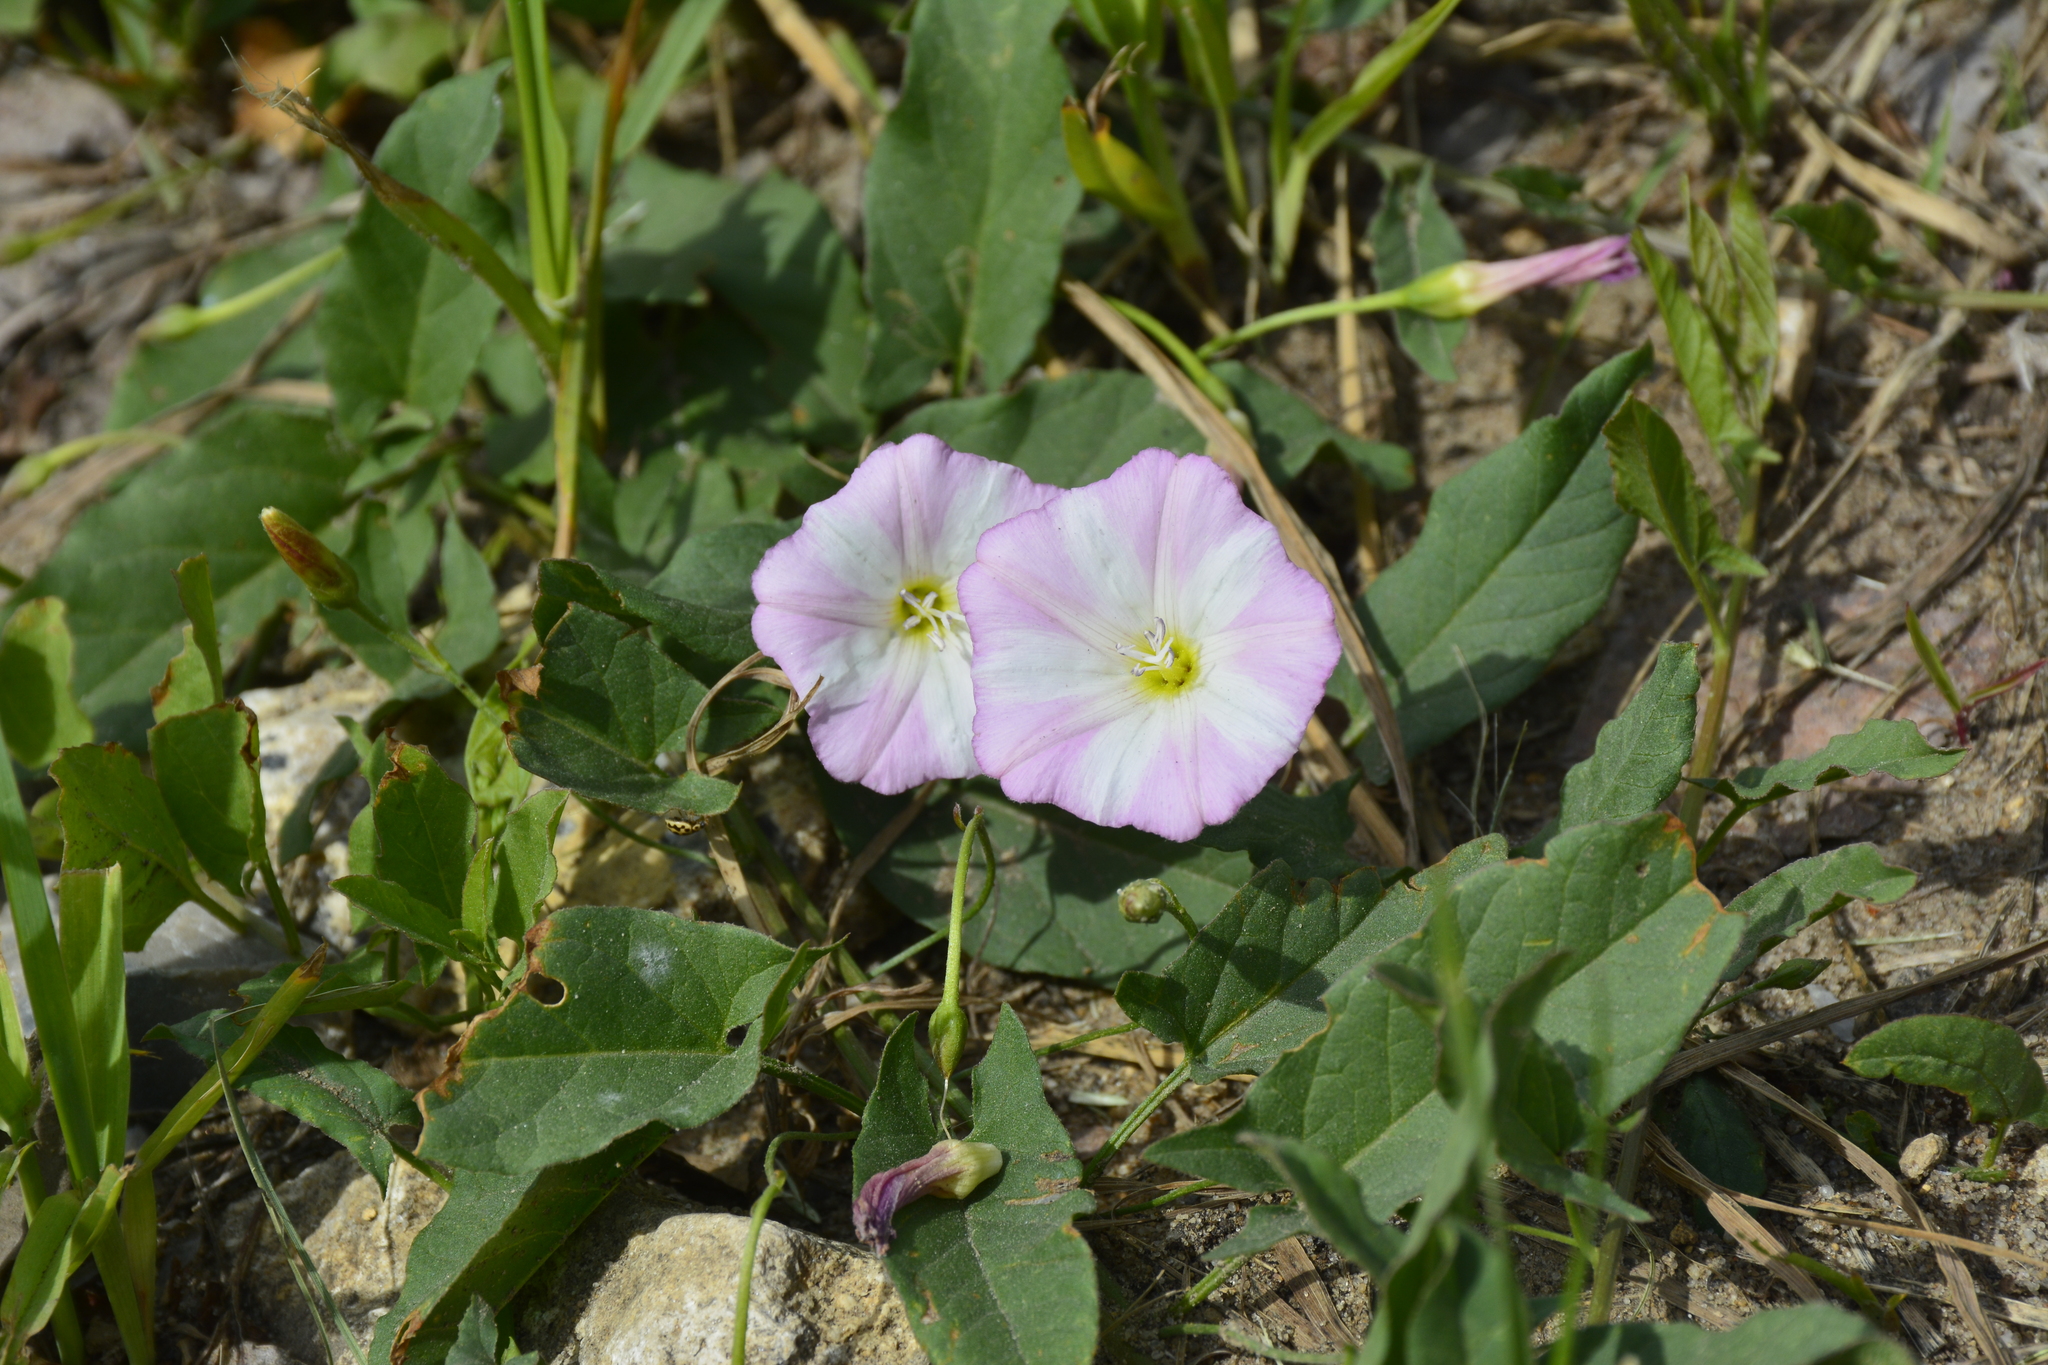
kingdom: Plantae
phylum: Tracheophyta
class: Magnoliopsida
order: Solanales
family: Convolvulaceae
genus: Convolvulus
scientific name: Convolvulus arvensis
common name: Field bindweed
